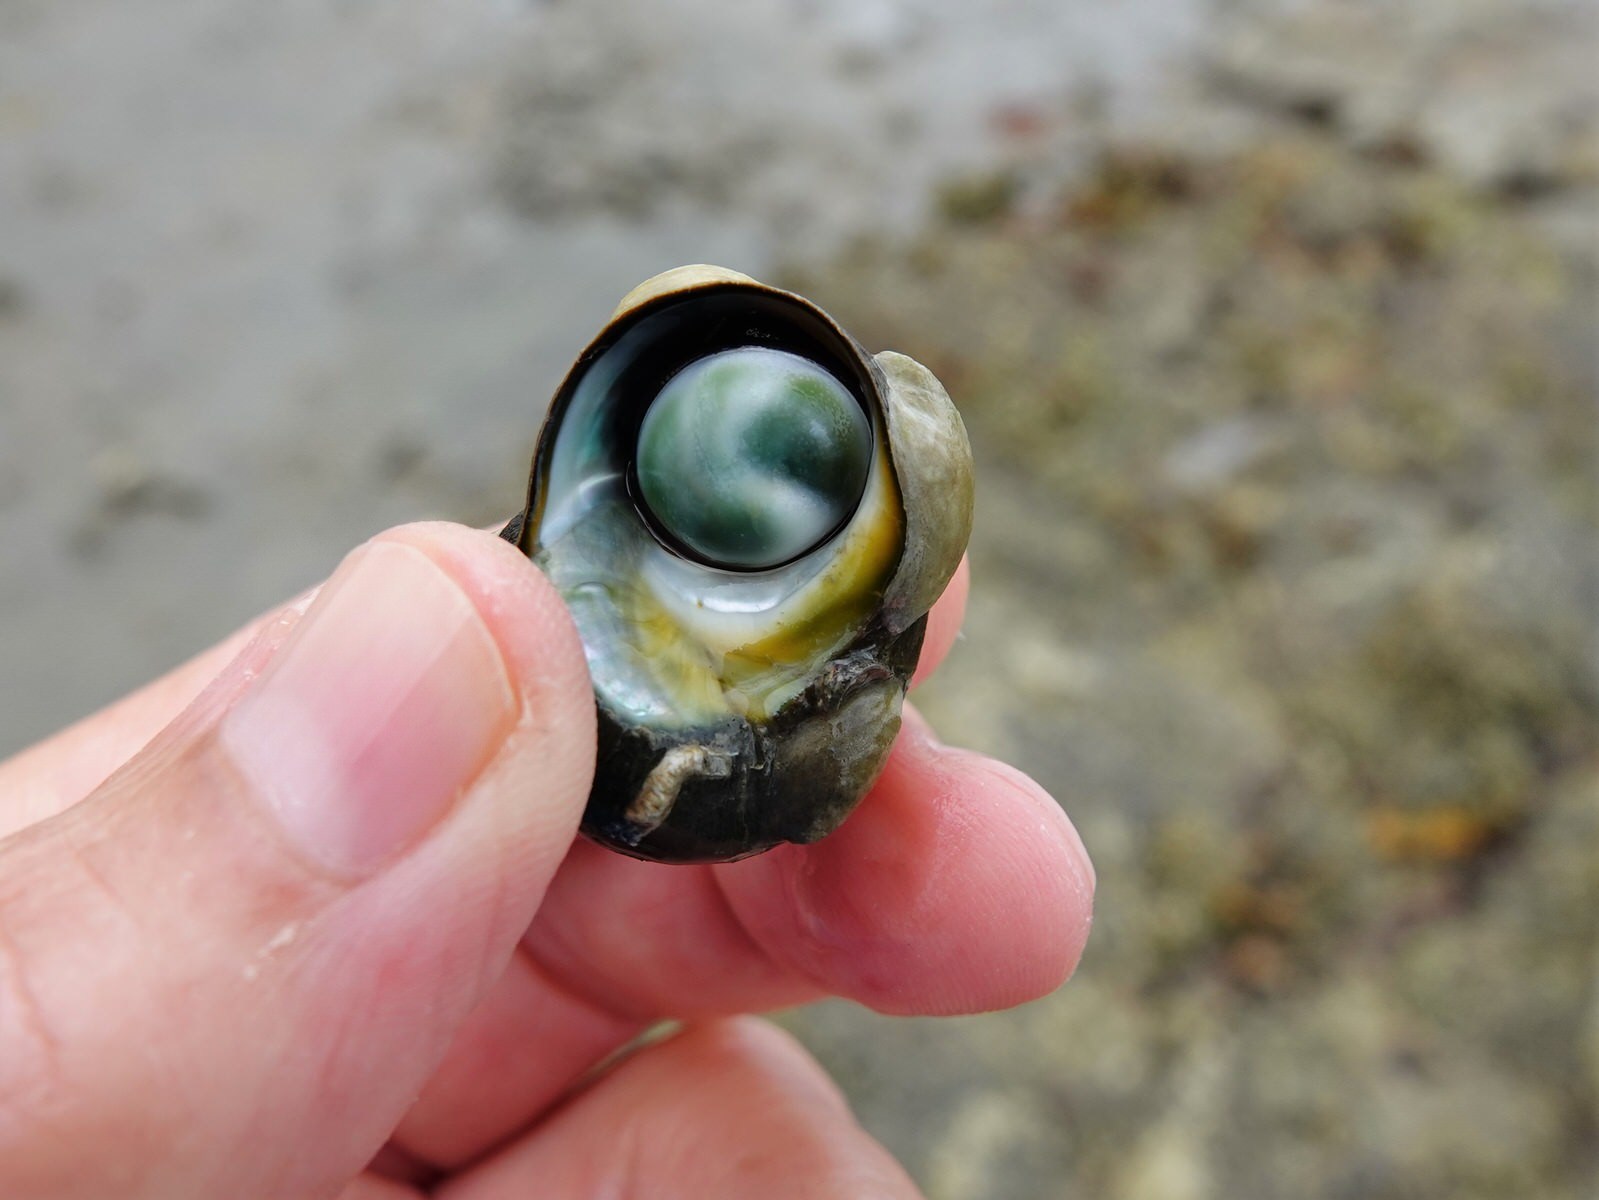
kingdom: Animalia
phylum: Mollusca
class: Gastropoda
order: Littorinimorpha
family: Calyptraeidae
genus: Maoricrypta
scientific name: Maoricrypta monoxyla
